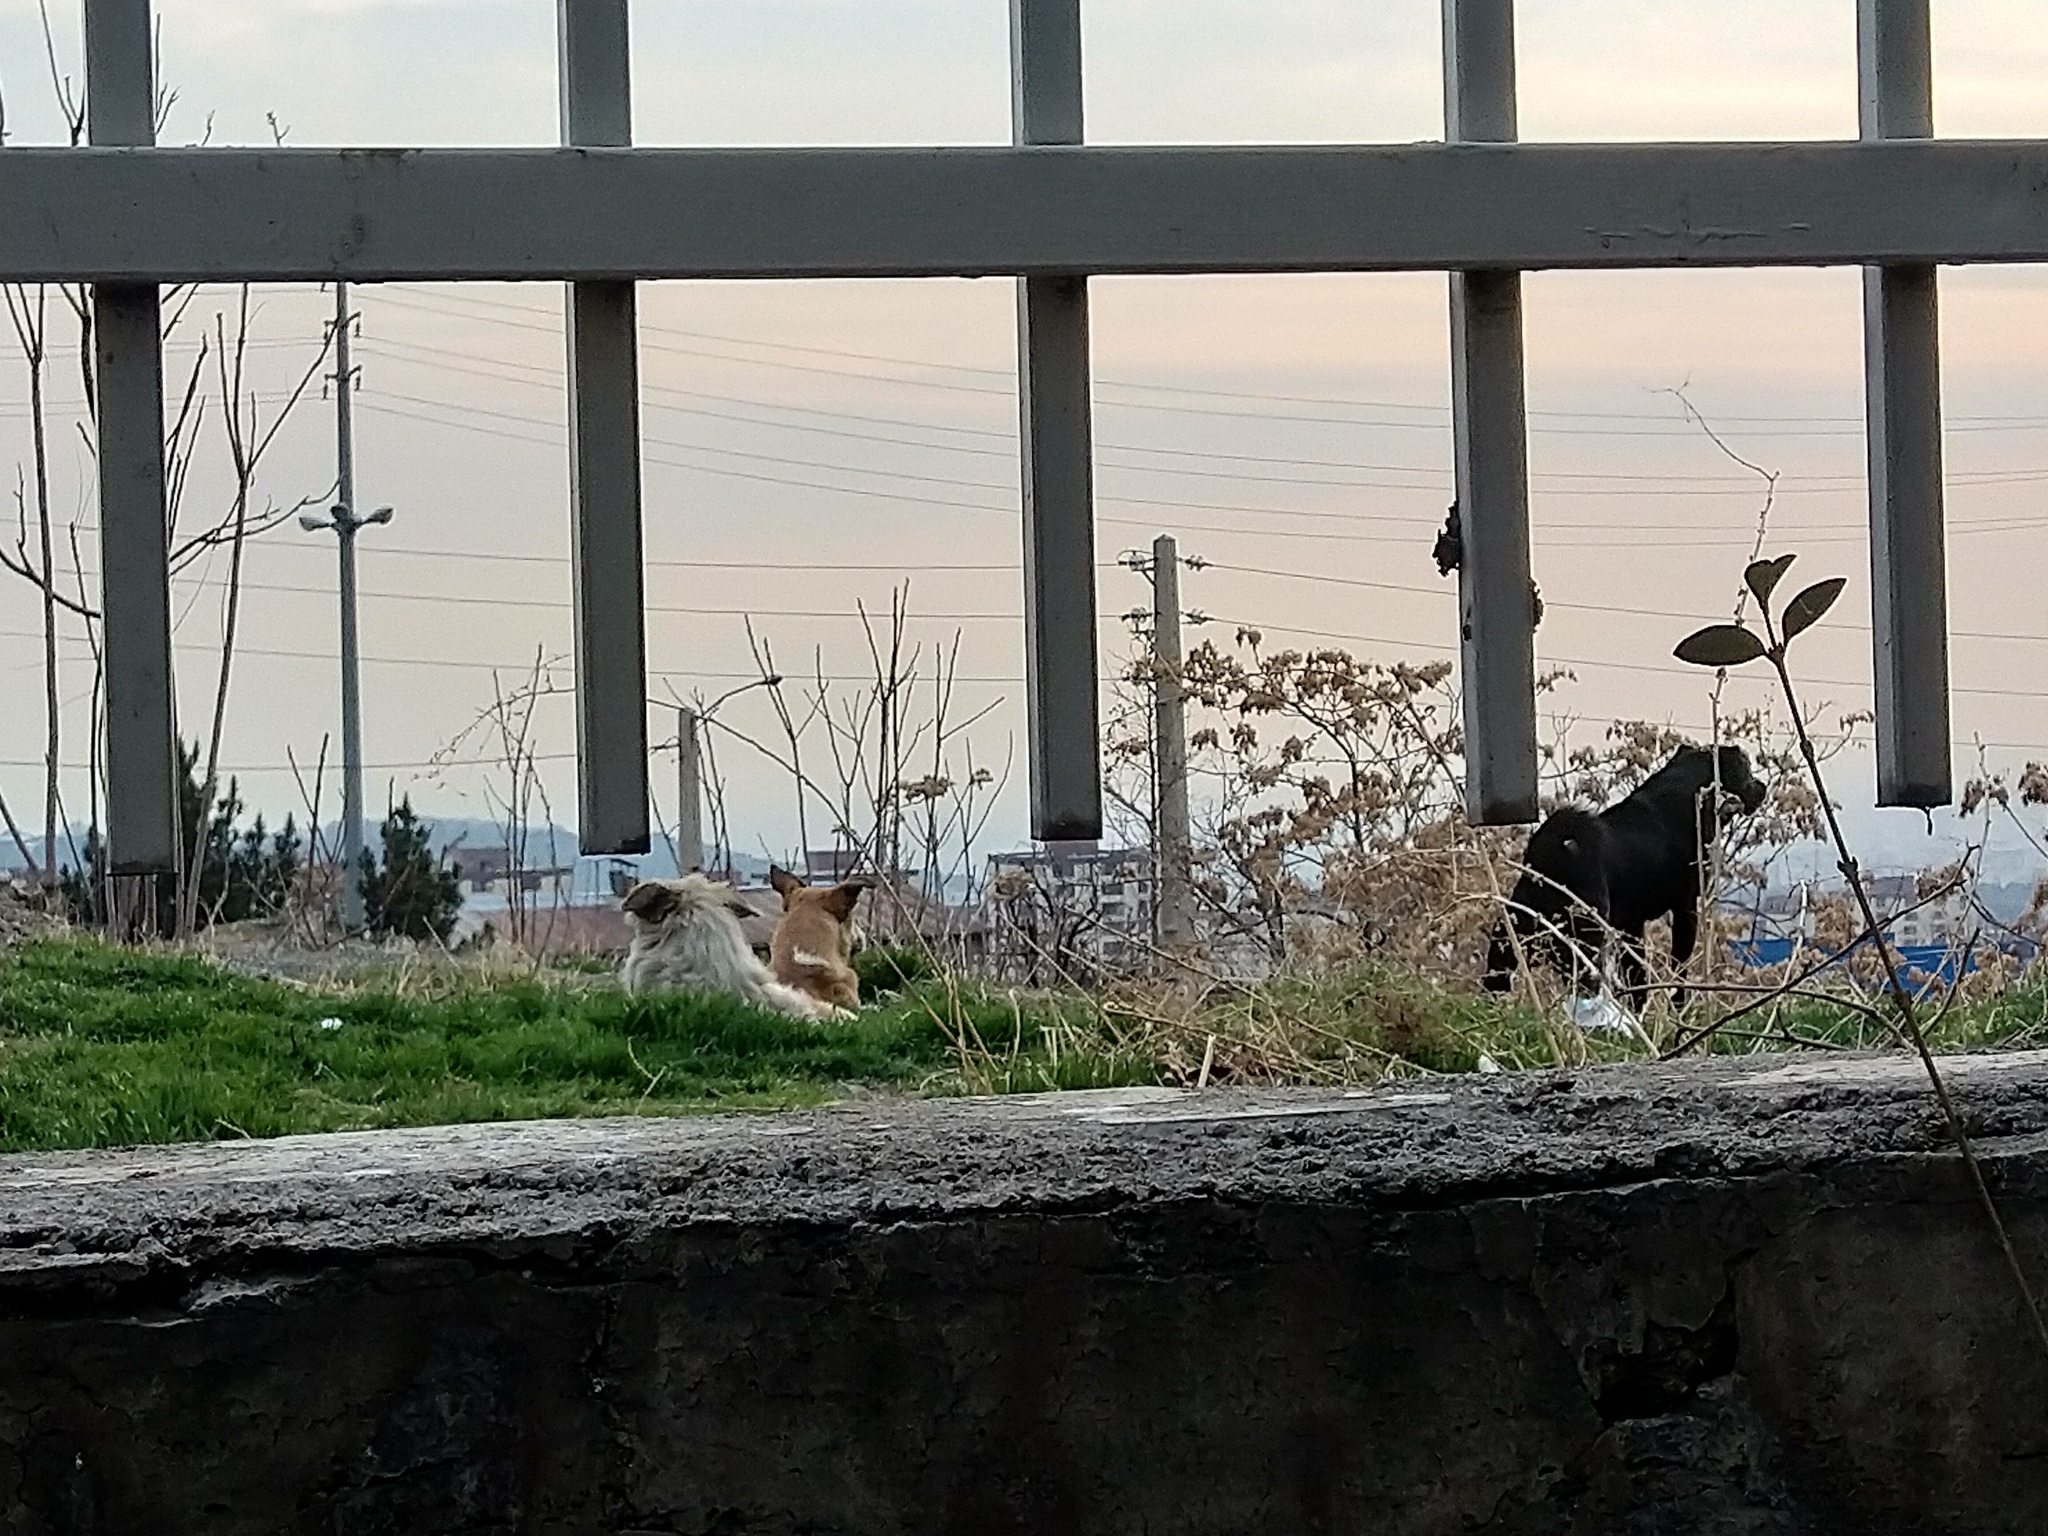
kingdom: Animalia
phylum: Chordata
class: Mammalia
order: Carnivora
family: Canidae
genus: Canis
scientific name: Canis lupus
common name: Gray wolf
